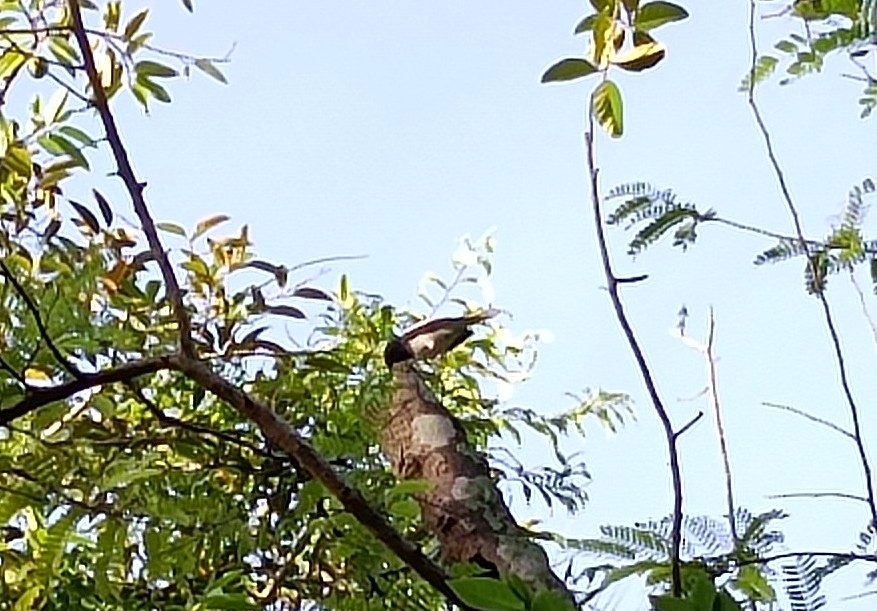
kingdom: Animalia
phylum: Chordata
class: Aves
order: Passeriformes
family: Muscicapidae
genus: Copsychus
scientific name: Copsychus saularis
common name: Oriental magpie-robin
